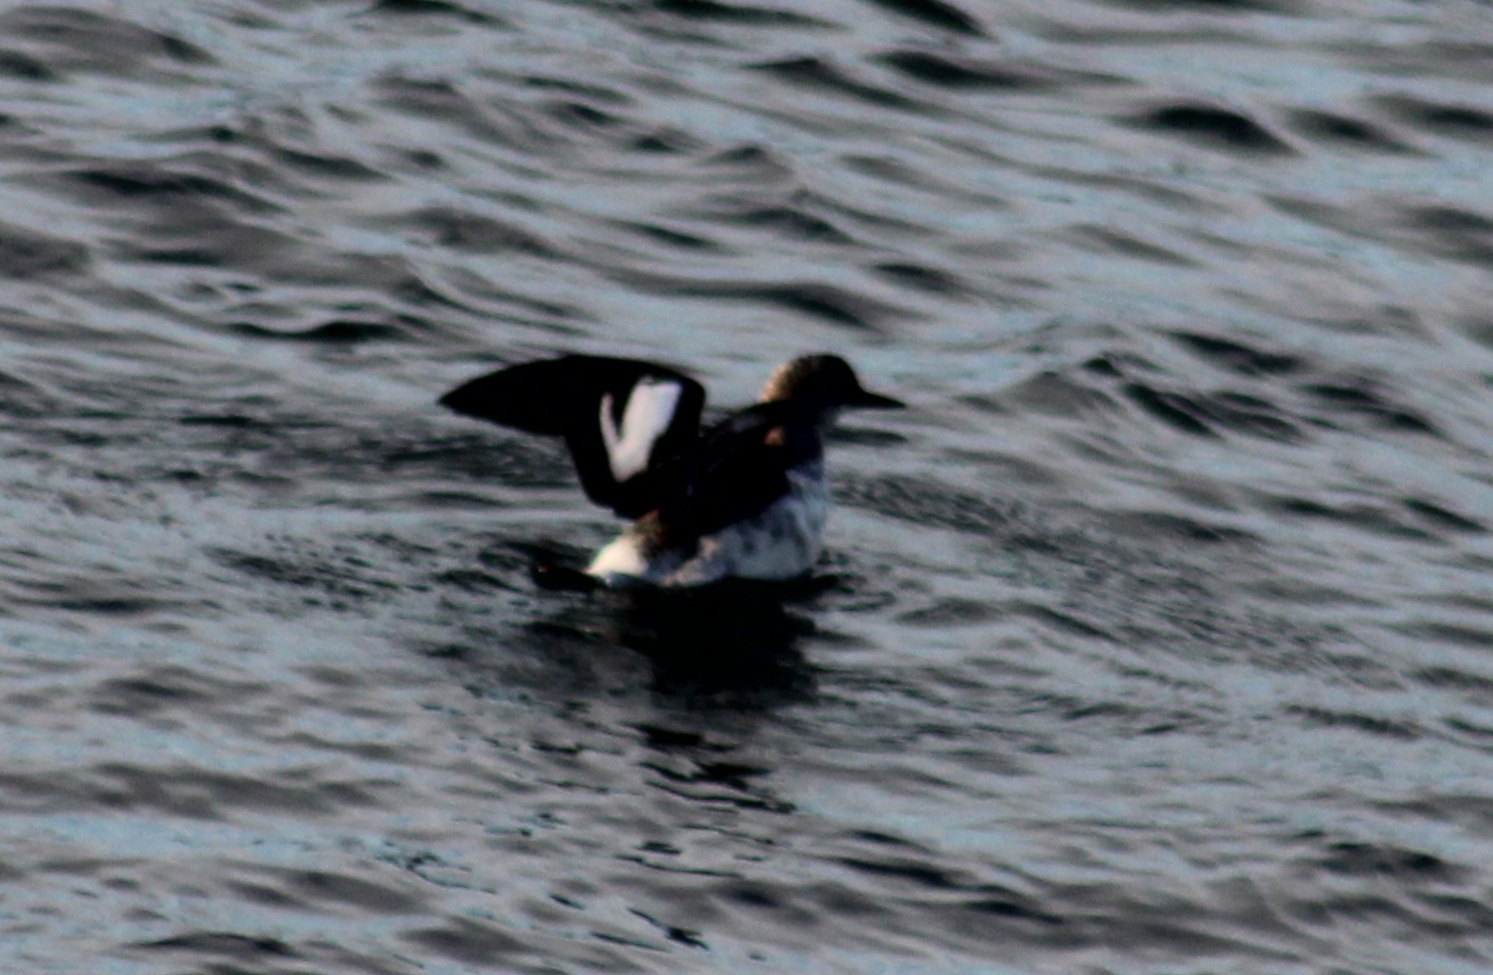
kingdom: Animalia
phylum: Chordata
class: Aves
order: Charadriiformes
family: Alcidae
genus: Cepphus
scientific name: Cepphus columba
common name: Pigeon guillemot
